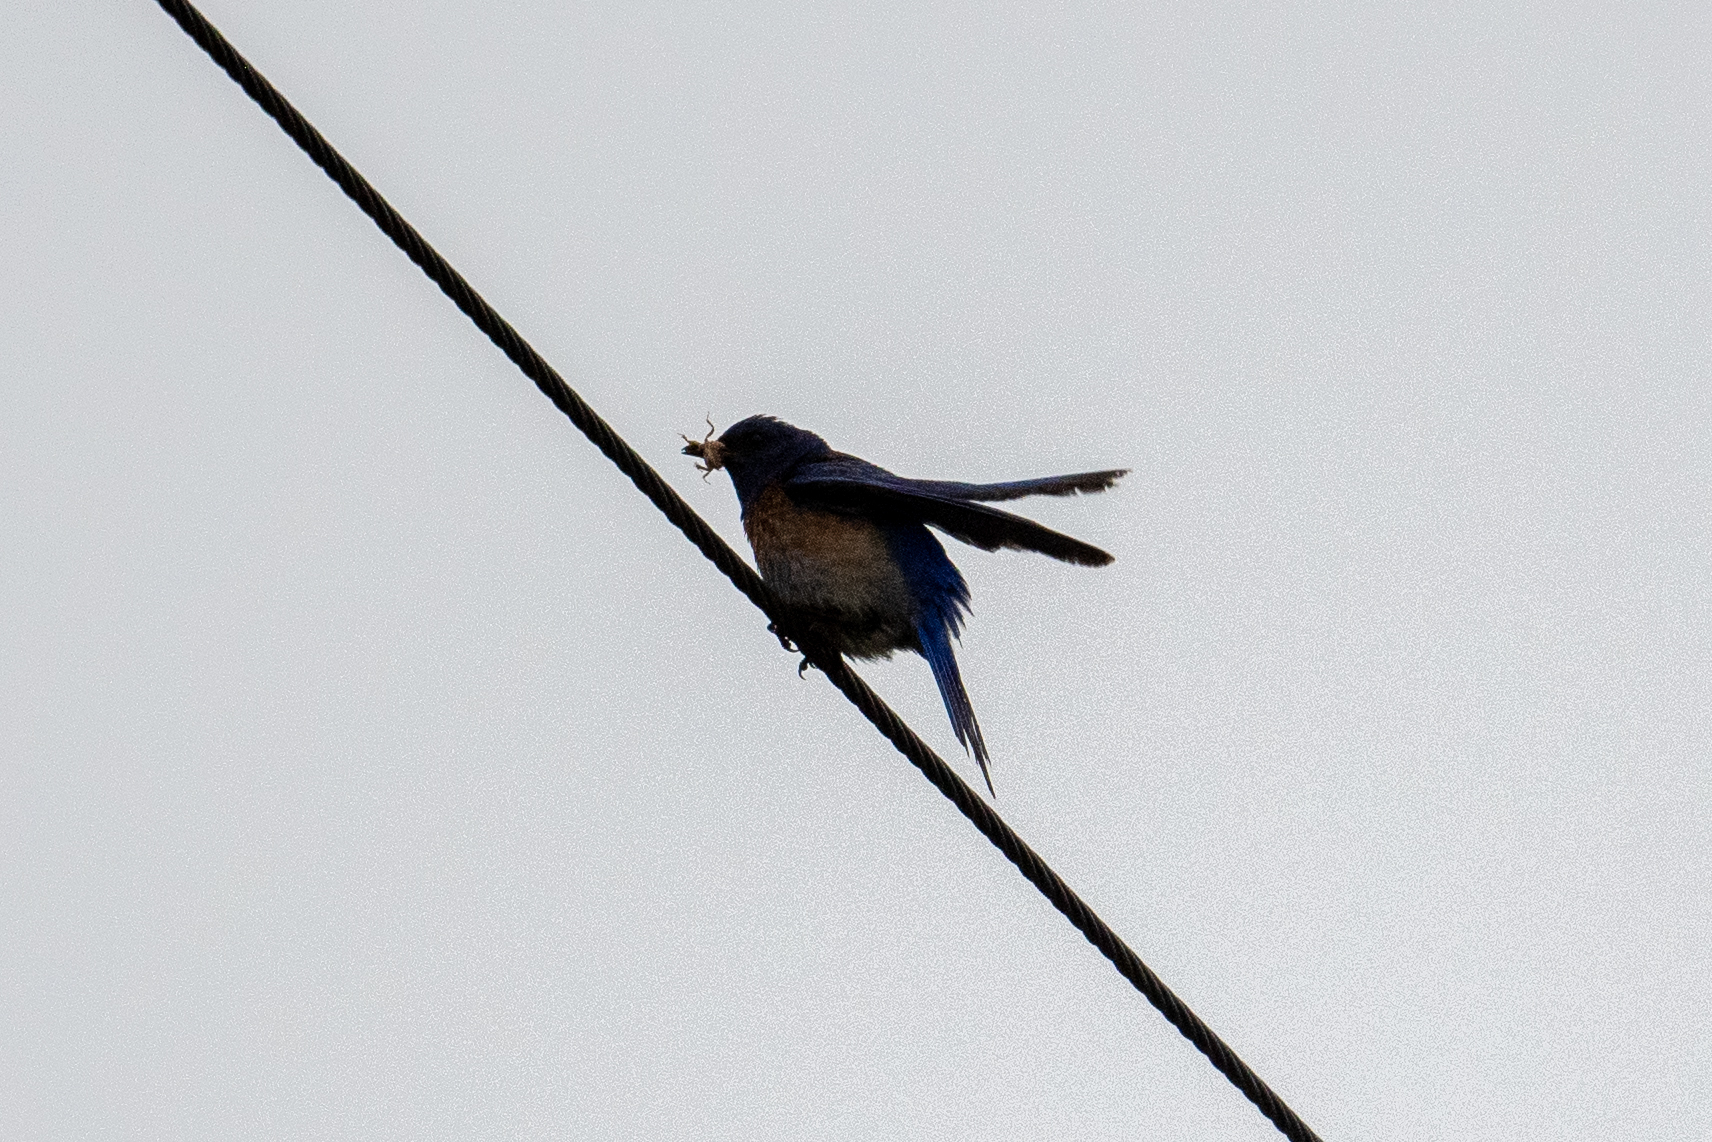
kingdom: Animalia
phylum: Chordata
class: Aves
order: Passeriformes
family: Turdidae
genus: Sialia
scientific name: Sialia mexicana
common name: Western bluebird
